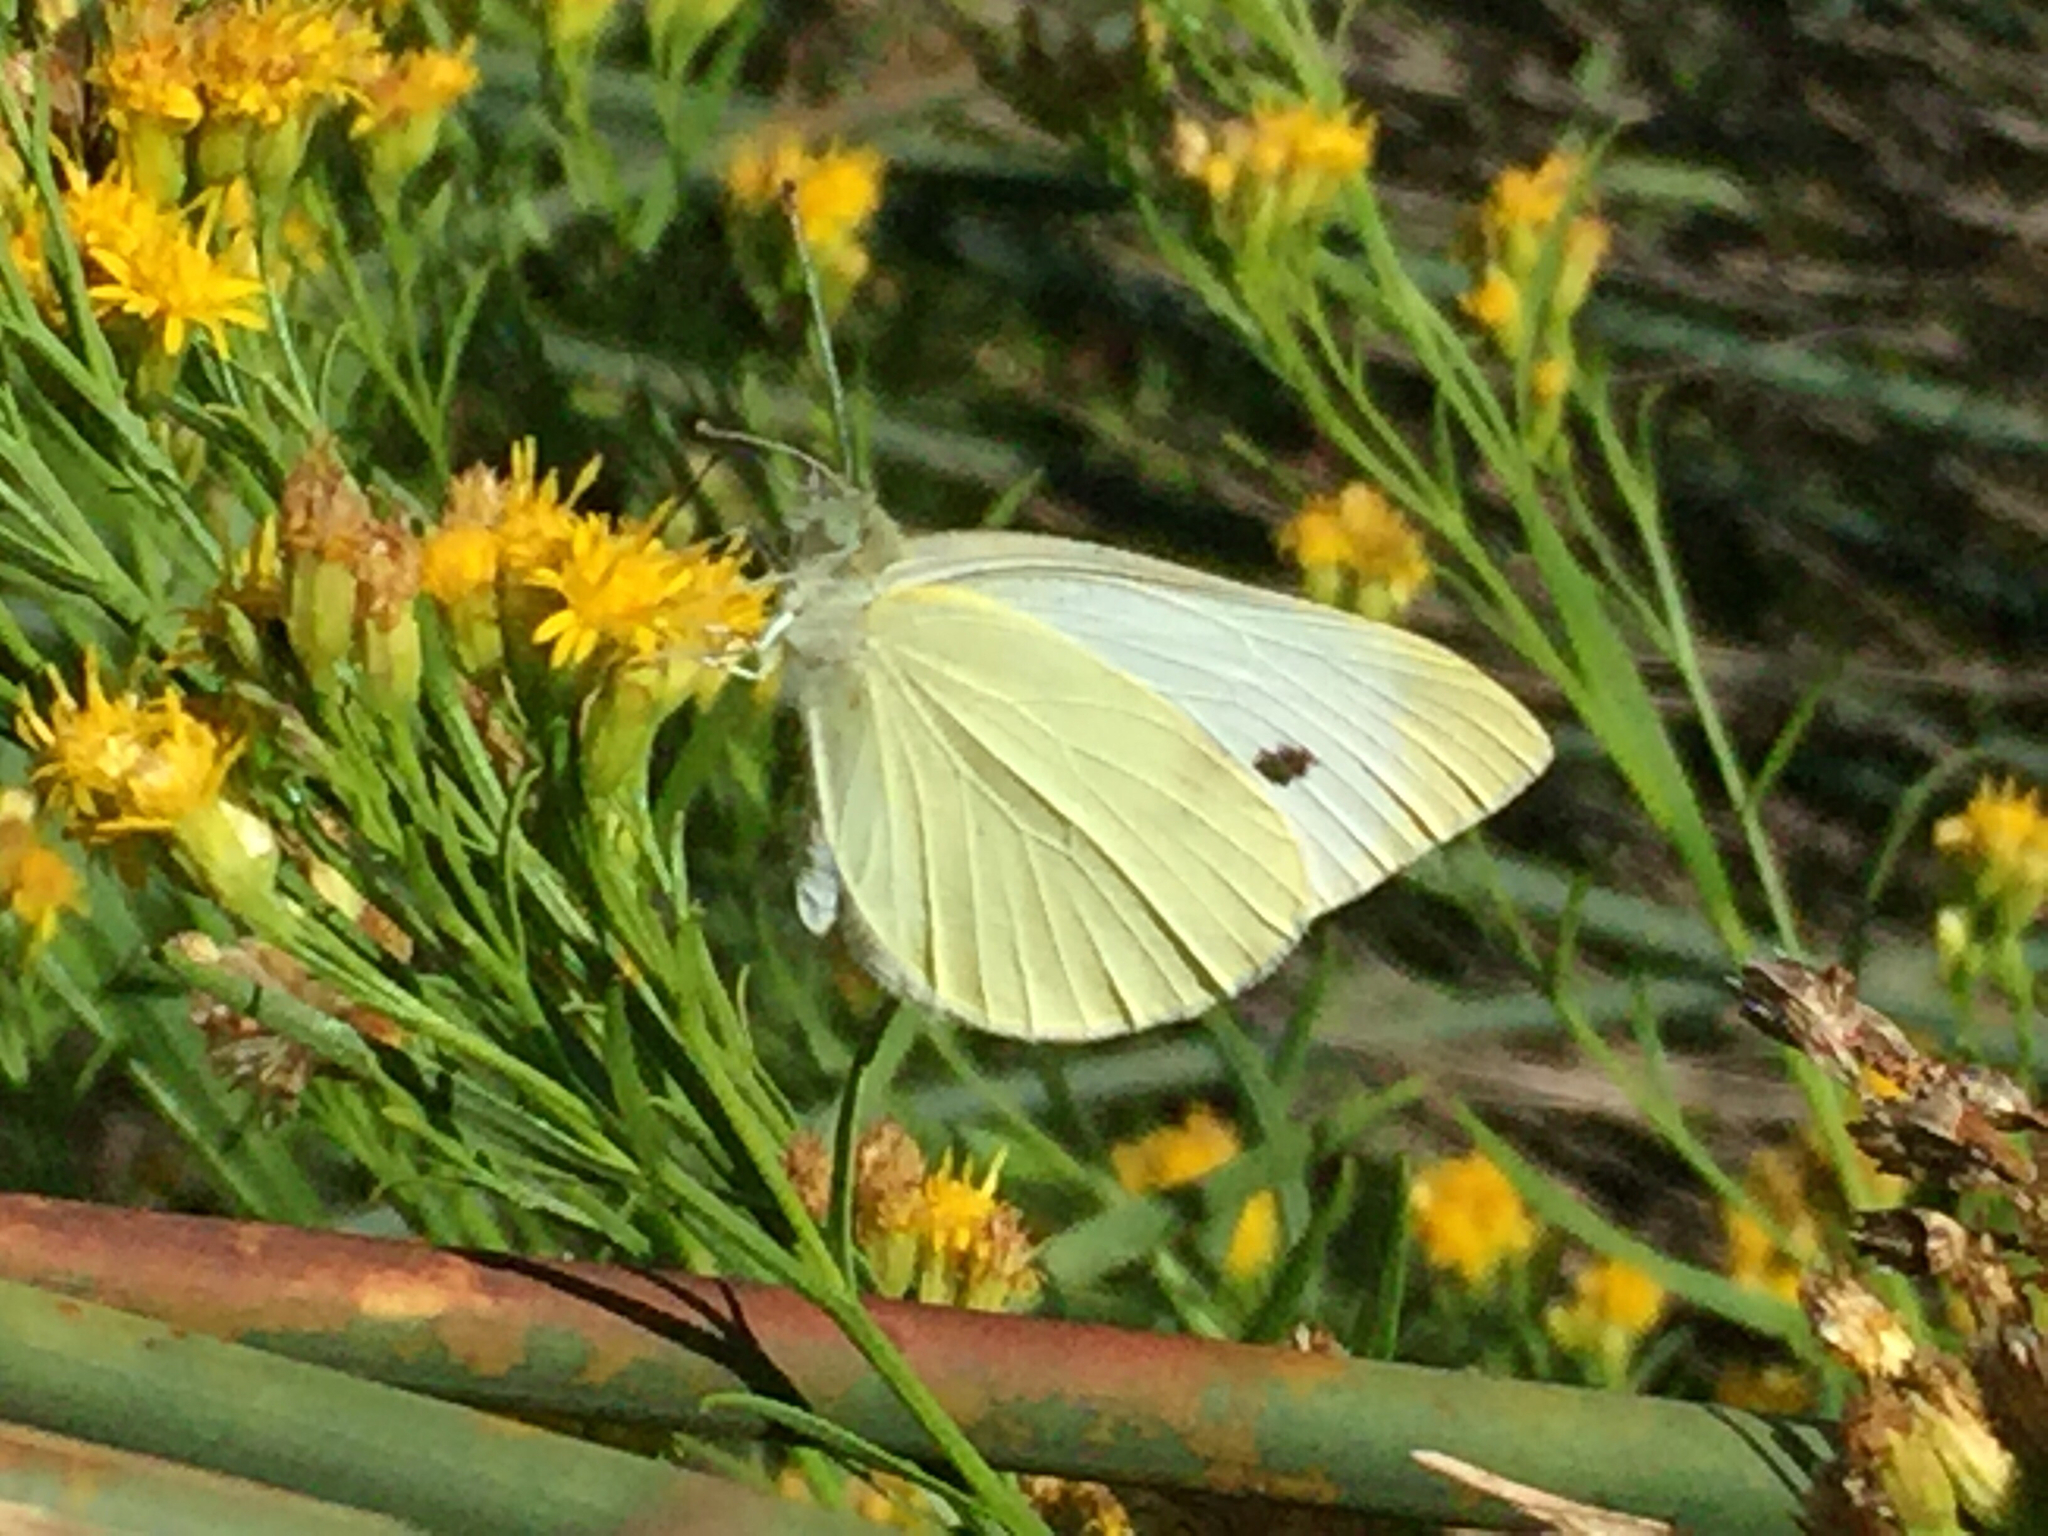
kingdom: Animalia
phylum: Arthropoda
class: Insecta
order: Lepidoptera
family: Pieridae
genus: Pieris
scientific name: Pieris rapae
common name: Small white
